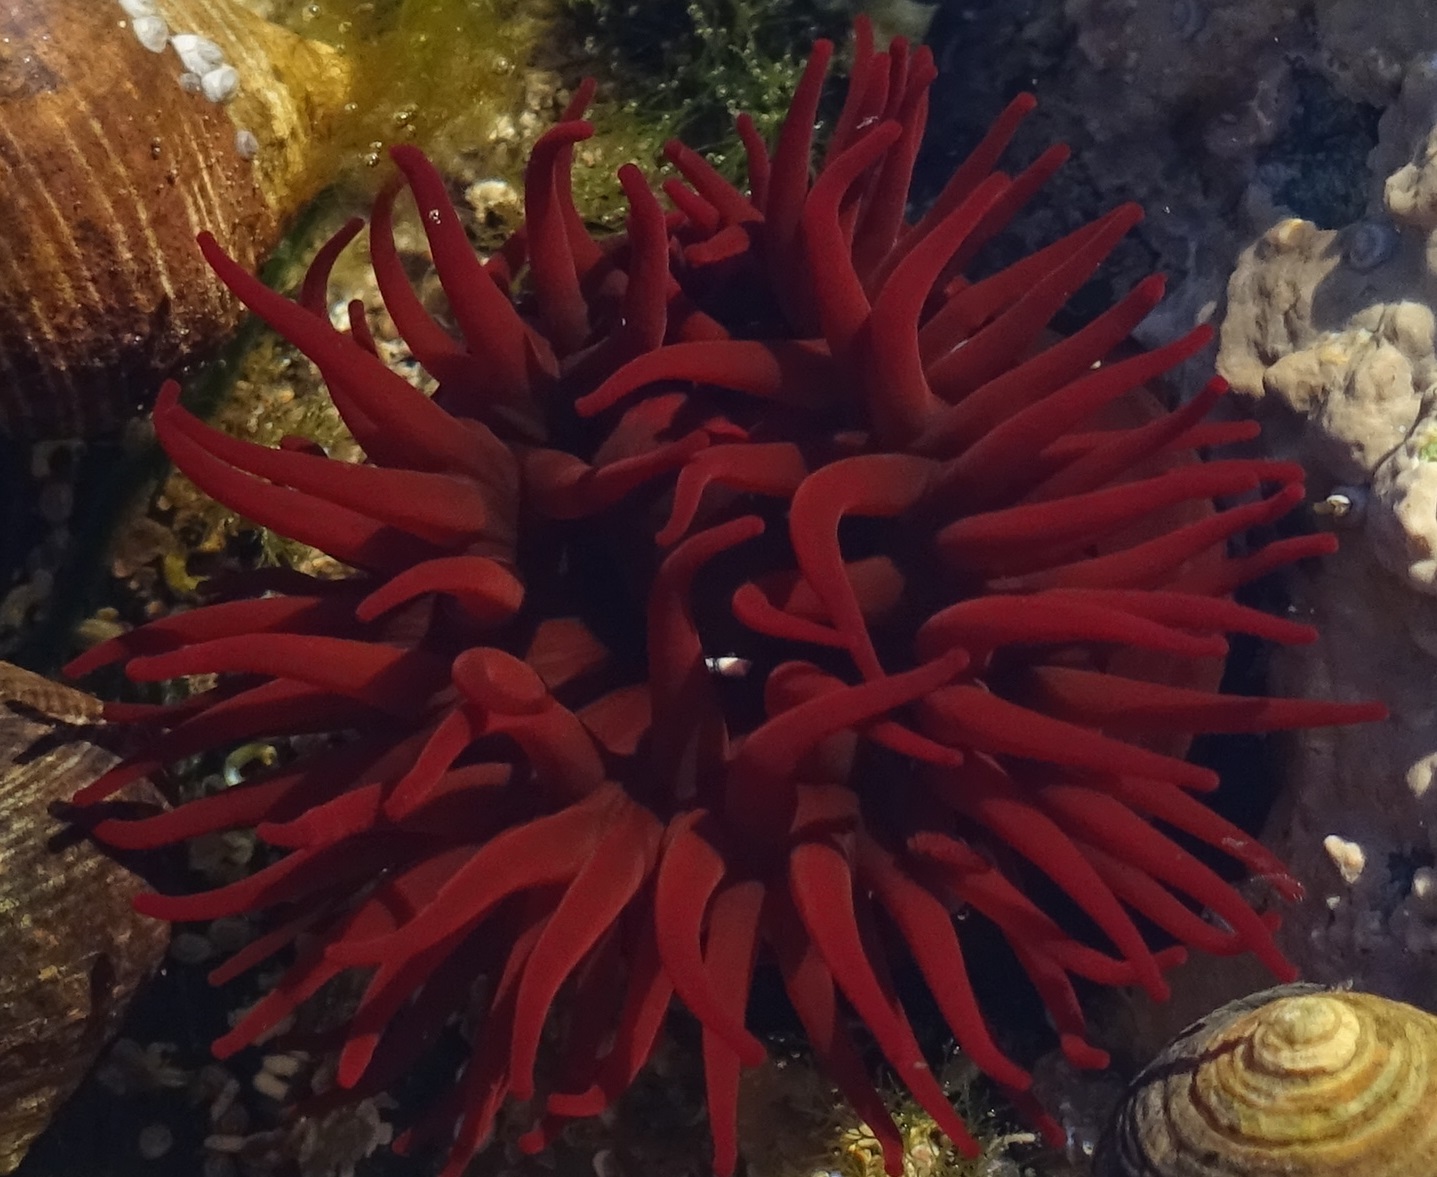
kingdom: Animalia
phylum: Cnidaria
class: Anthozoa
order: Actiniaria
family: Actiniidae
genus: Actinia
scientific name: Actinia equina
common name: Beadlet anemone
